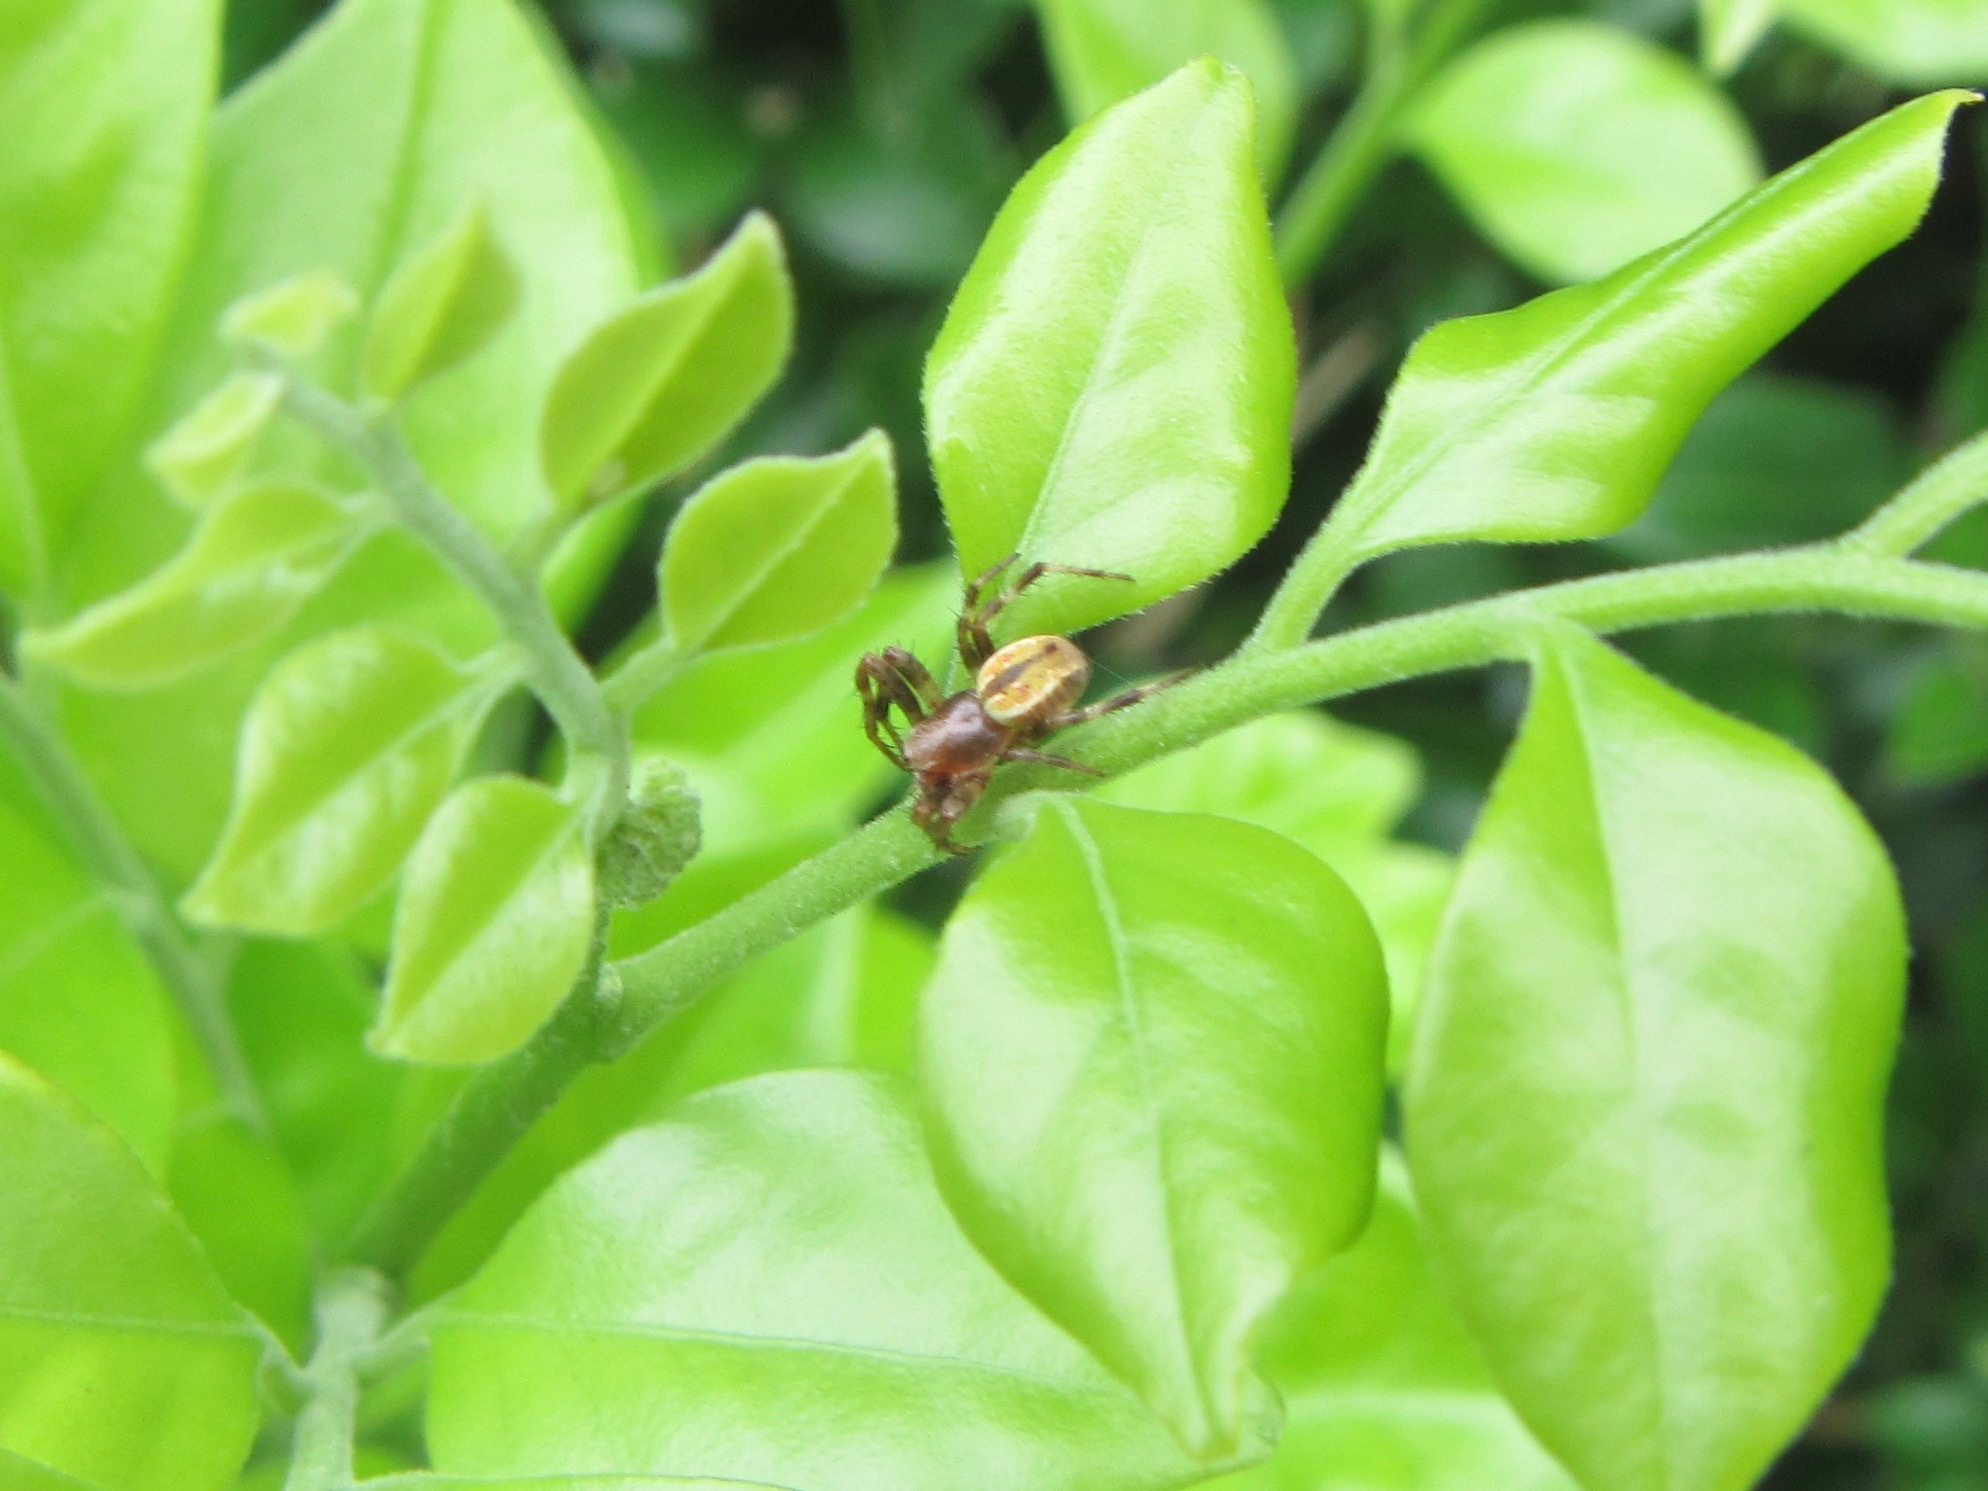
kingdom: Animalia
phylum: Arthropoda
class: Arachnida
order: Araneae
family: Araneidae
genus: Salsa
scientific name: Salsa fuliginata
